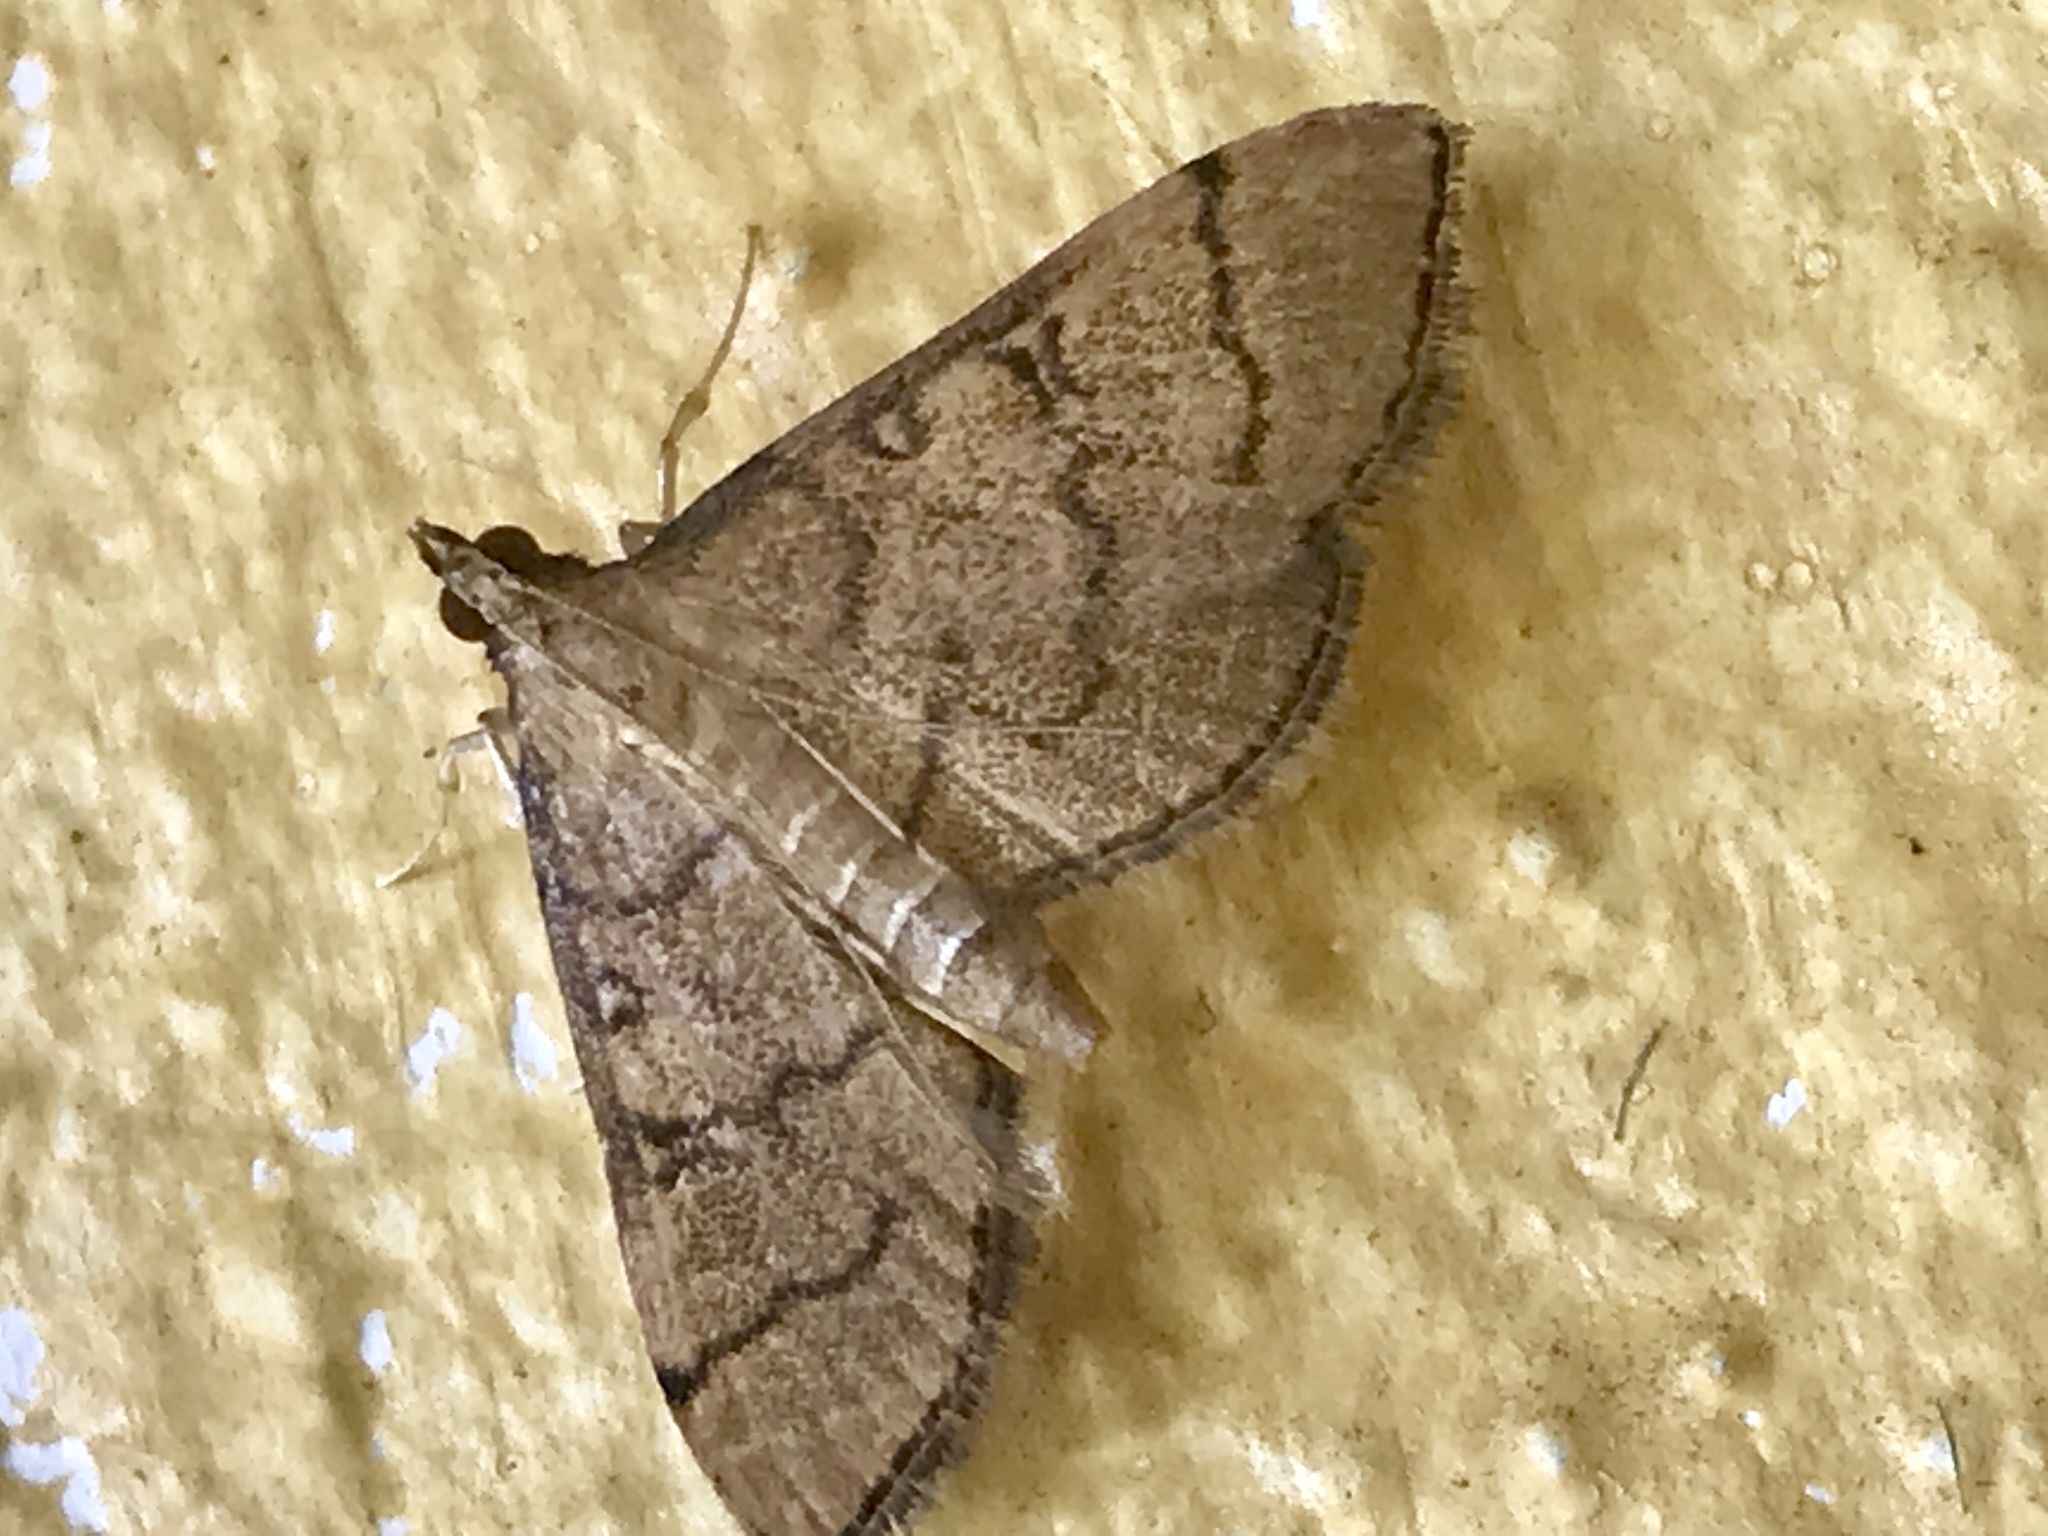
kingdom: Animalia
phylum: Arthropoda
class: Insecta
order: Lepidoptera
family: Crambidae
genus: Lamprosema
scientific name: Lamprosema Blepharomastix ranalis
